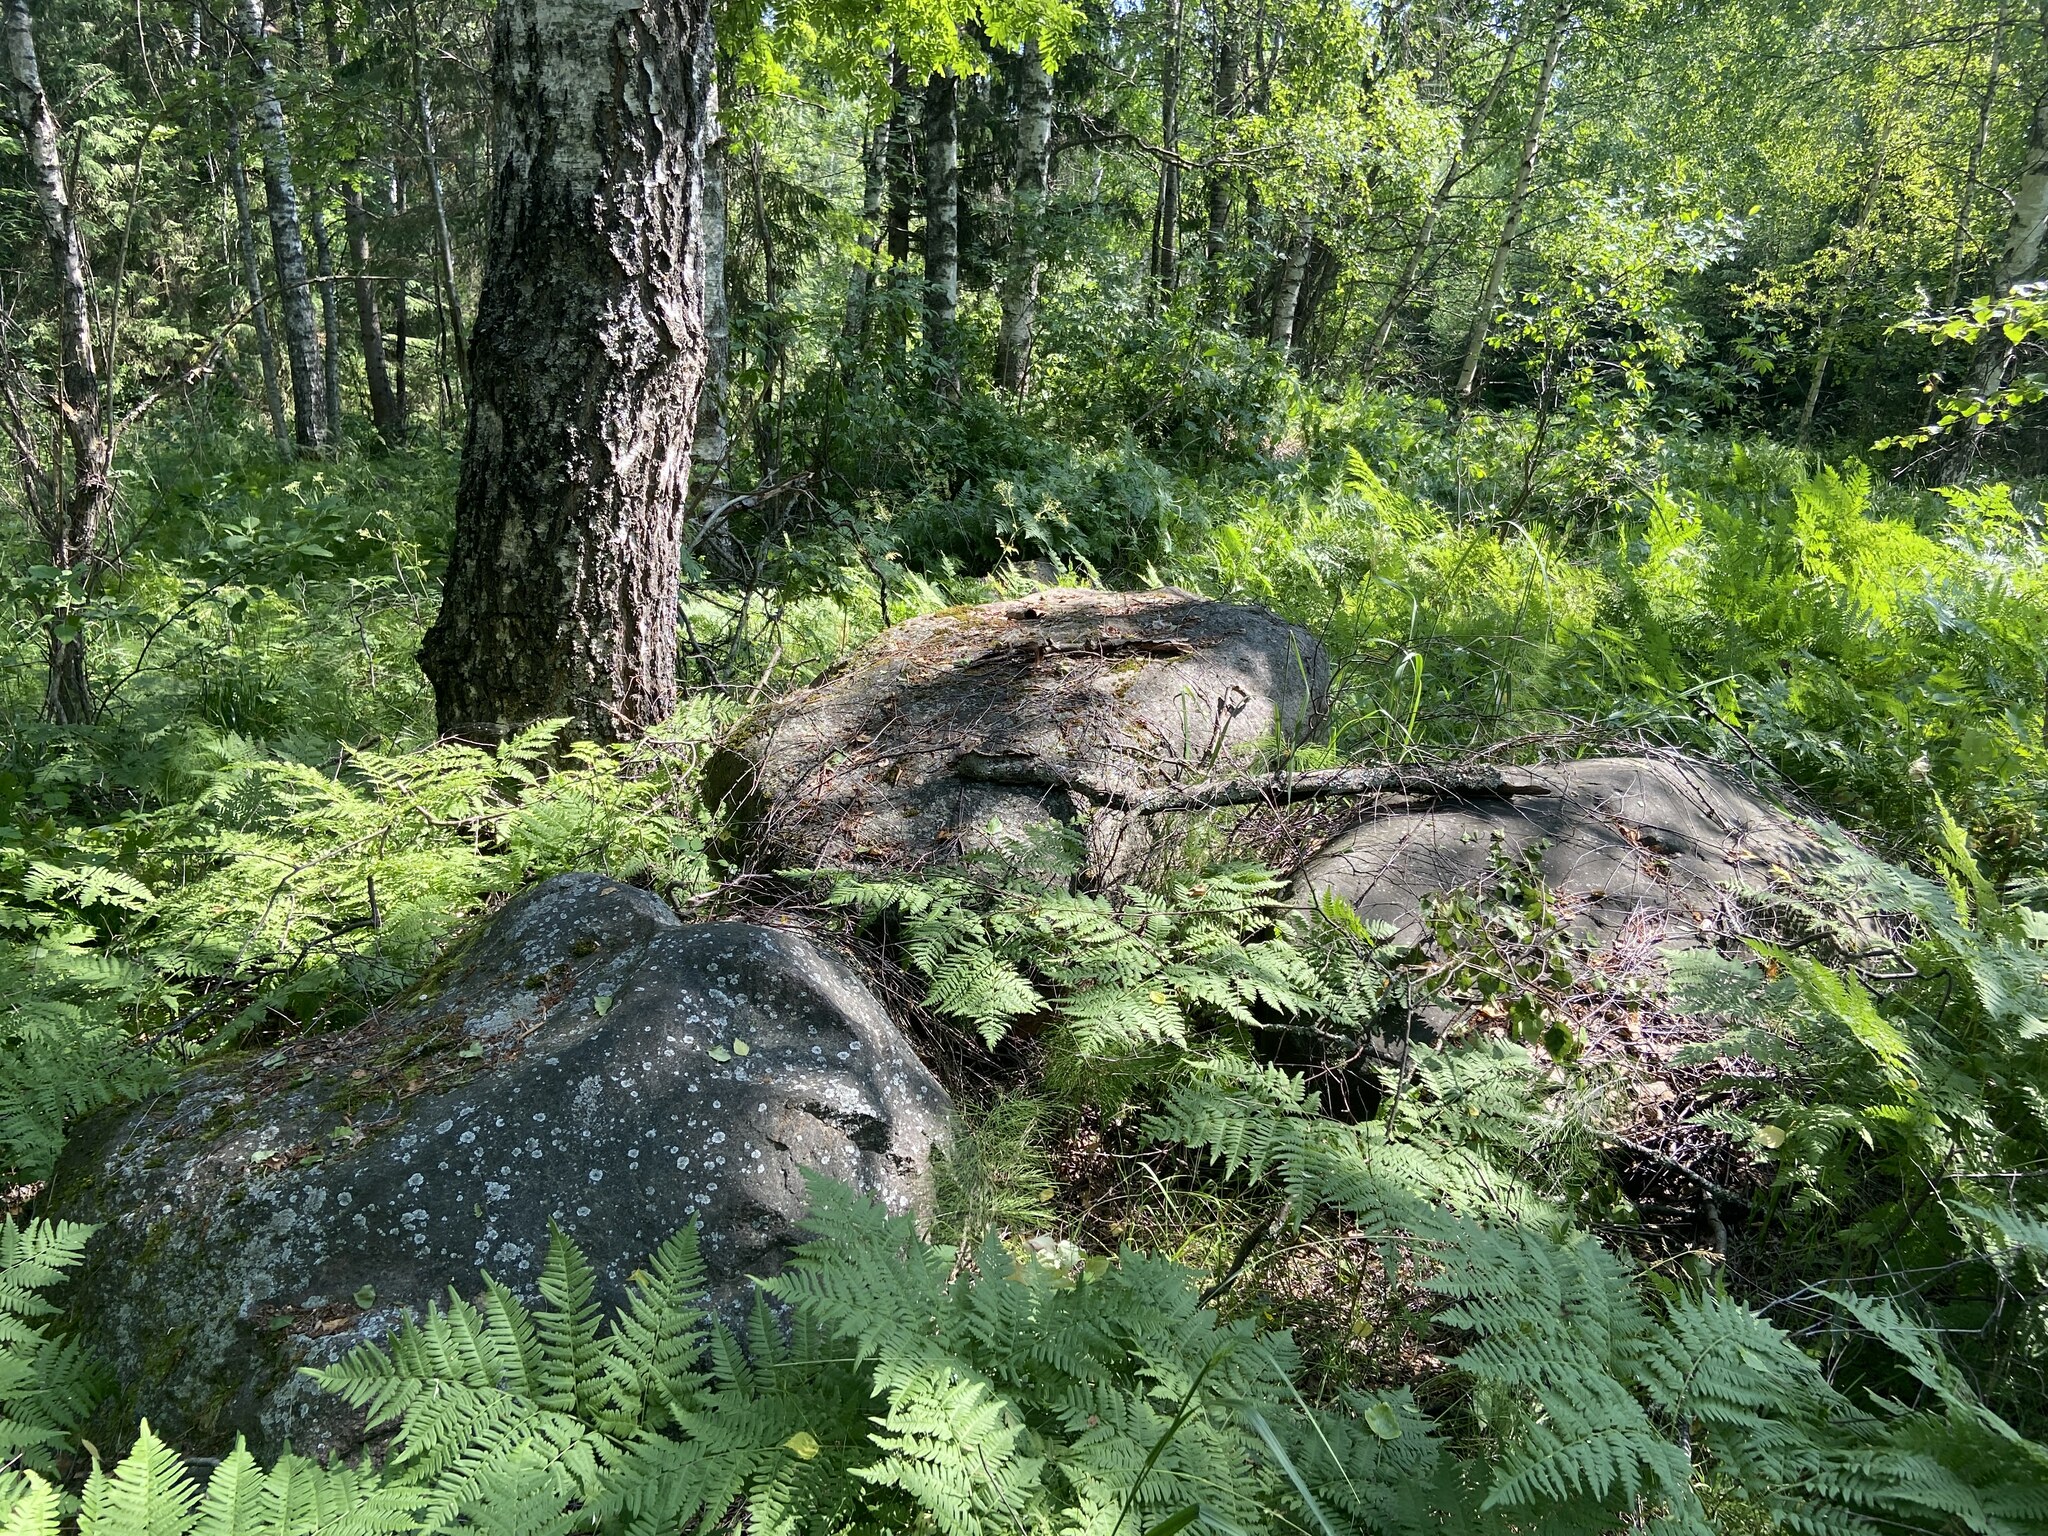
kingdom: Plantae
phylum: Tracheophyta
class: Polypodiopsida
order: Polypodiales
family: Dennstaedtiaceae
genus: Pteridium
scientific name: Pteridium aquilinum
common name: Bracken
